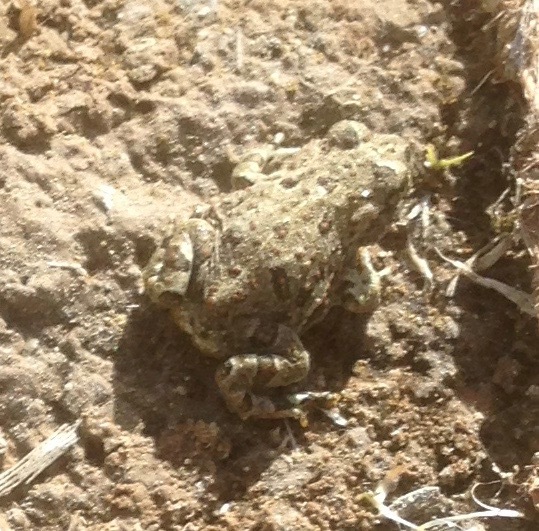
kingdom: Animalia
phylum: Chordata
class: Amphibia
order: Anura
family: Bufonidae
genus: Anaxyrus
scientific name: Anaxyrus boreas
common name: Western toad
